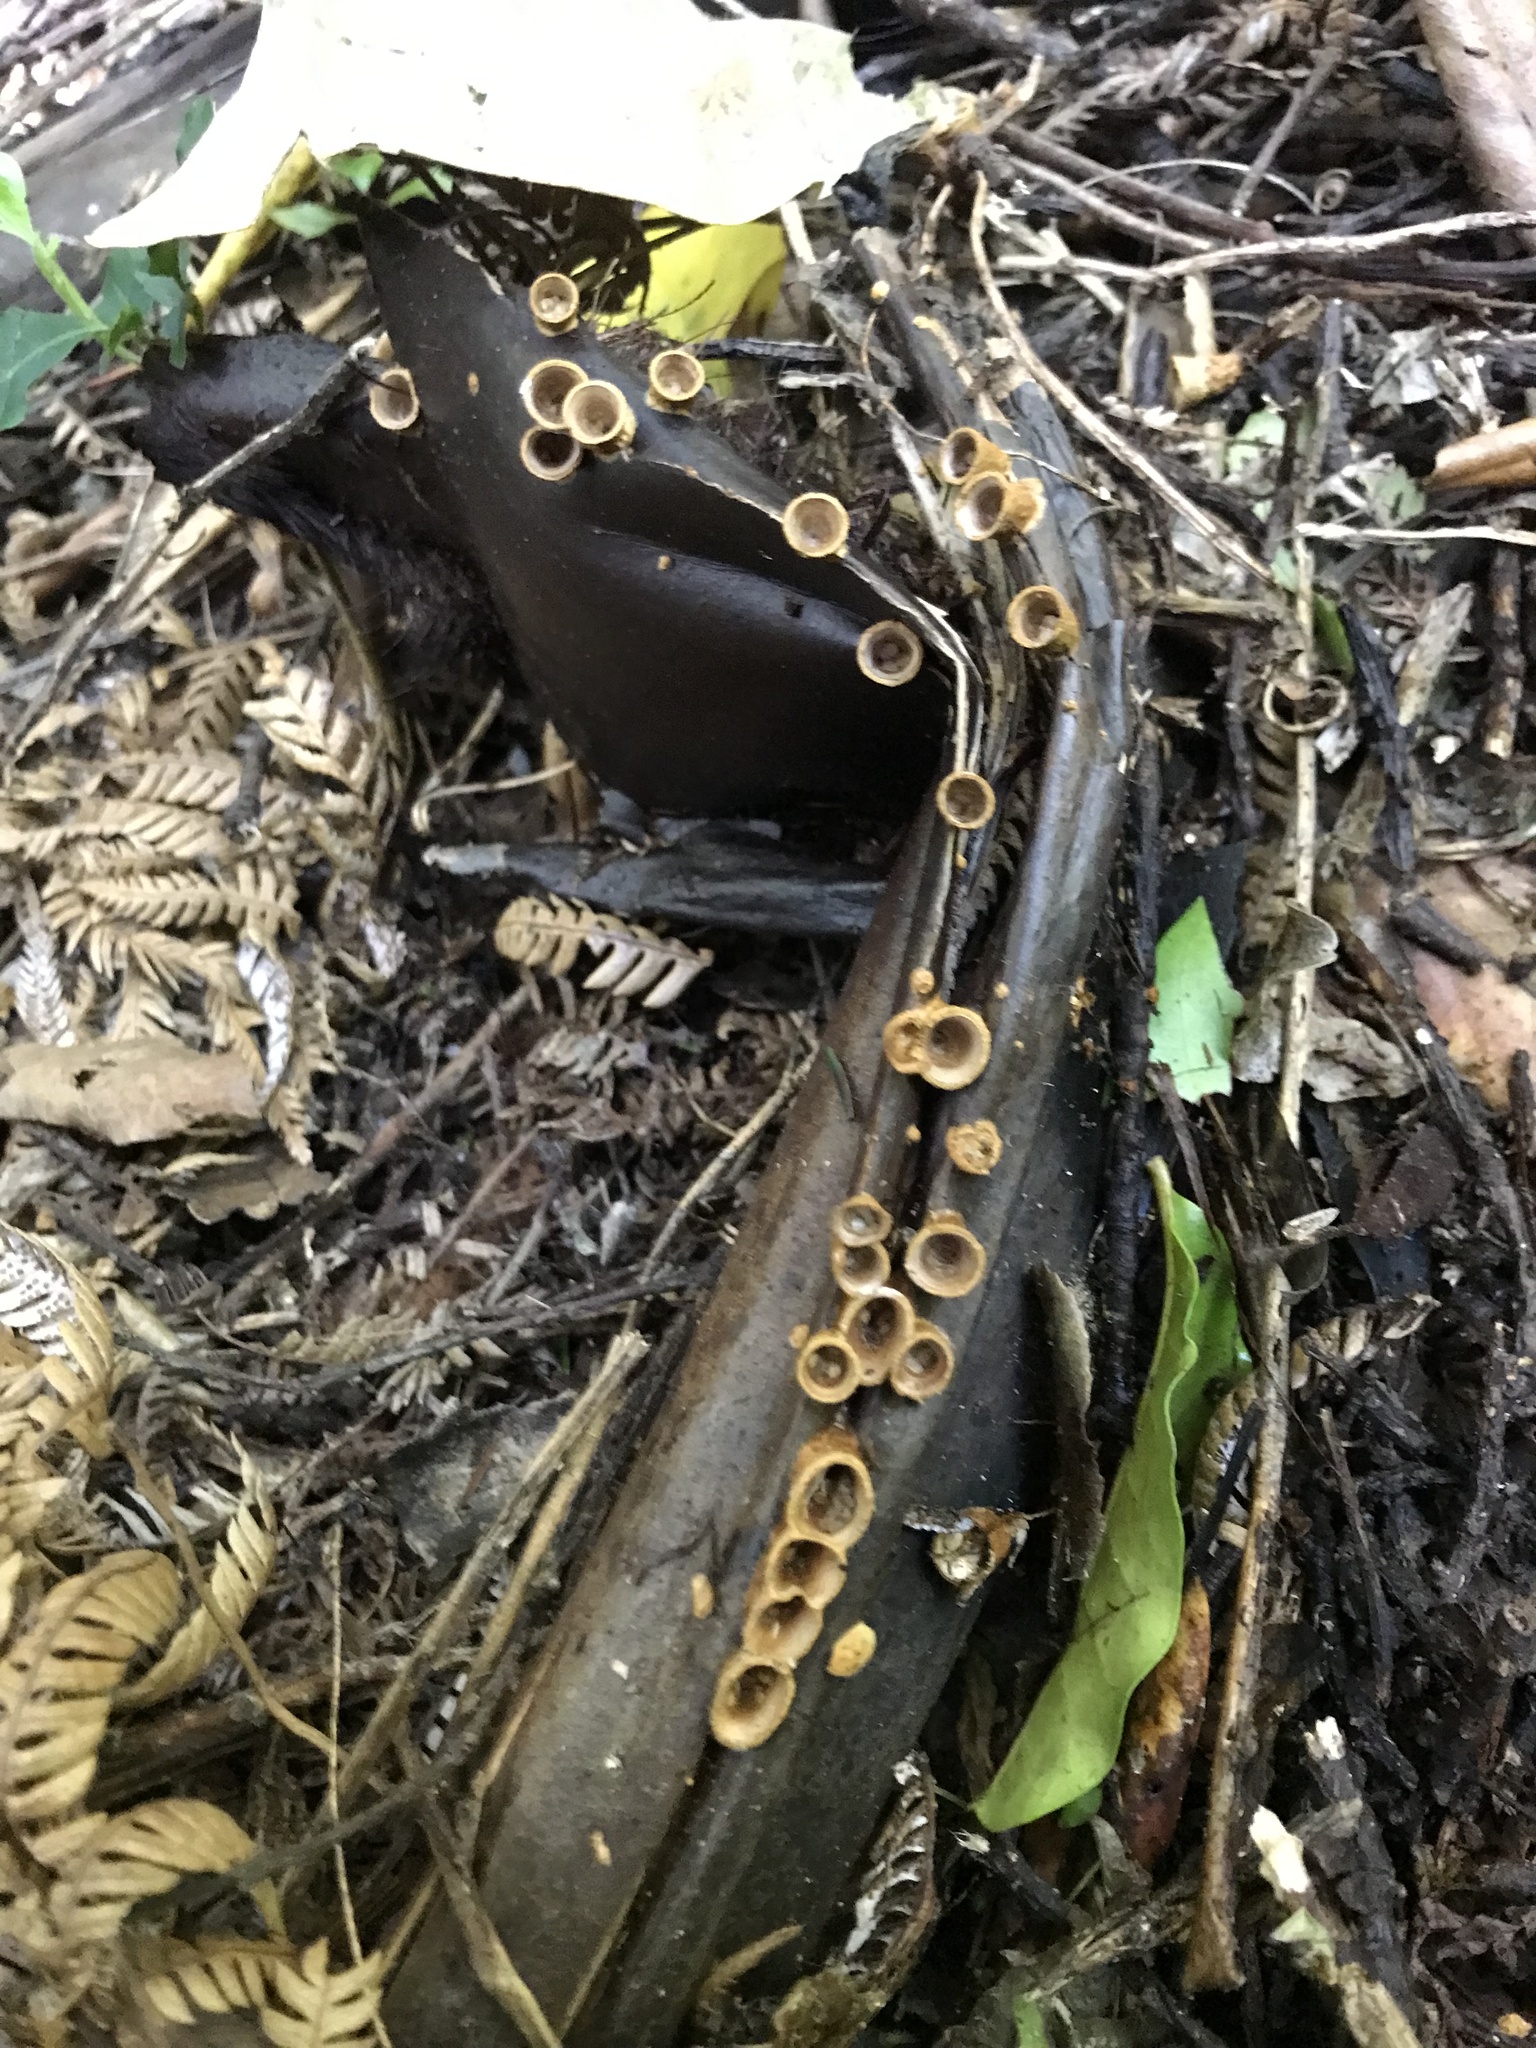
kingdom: Fungi
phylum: Basidiomycota
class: Agaricomycetes
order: Agaricales
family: Nidulariaceae
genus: Crucibulum
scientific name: Crucibulum simile
